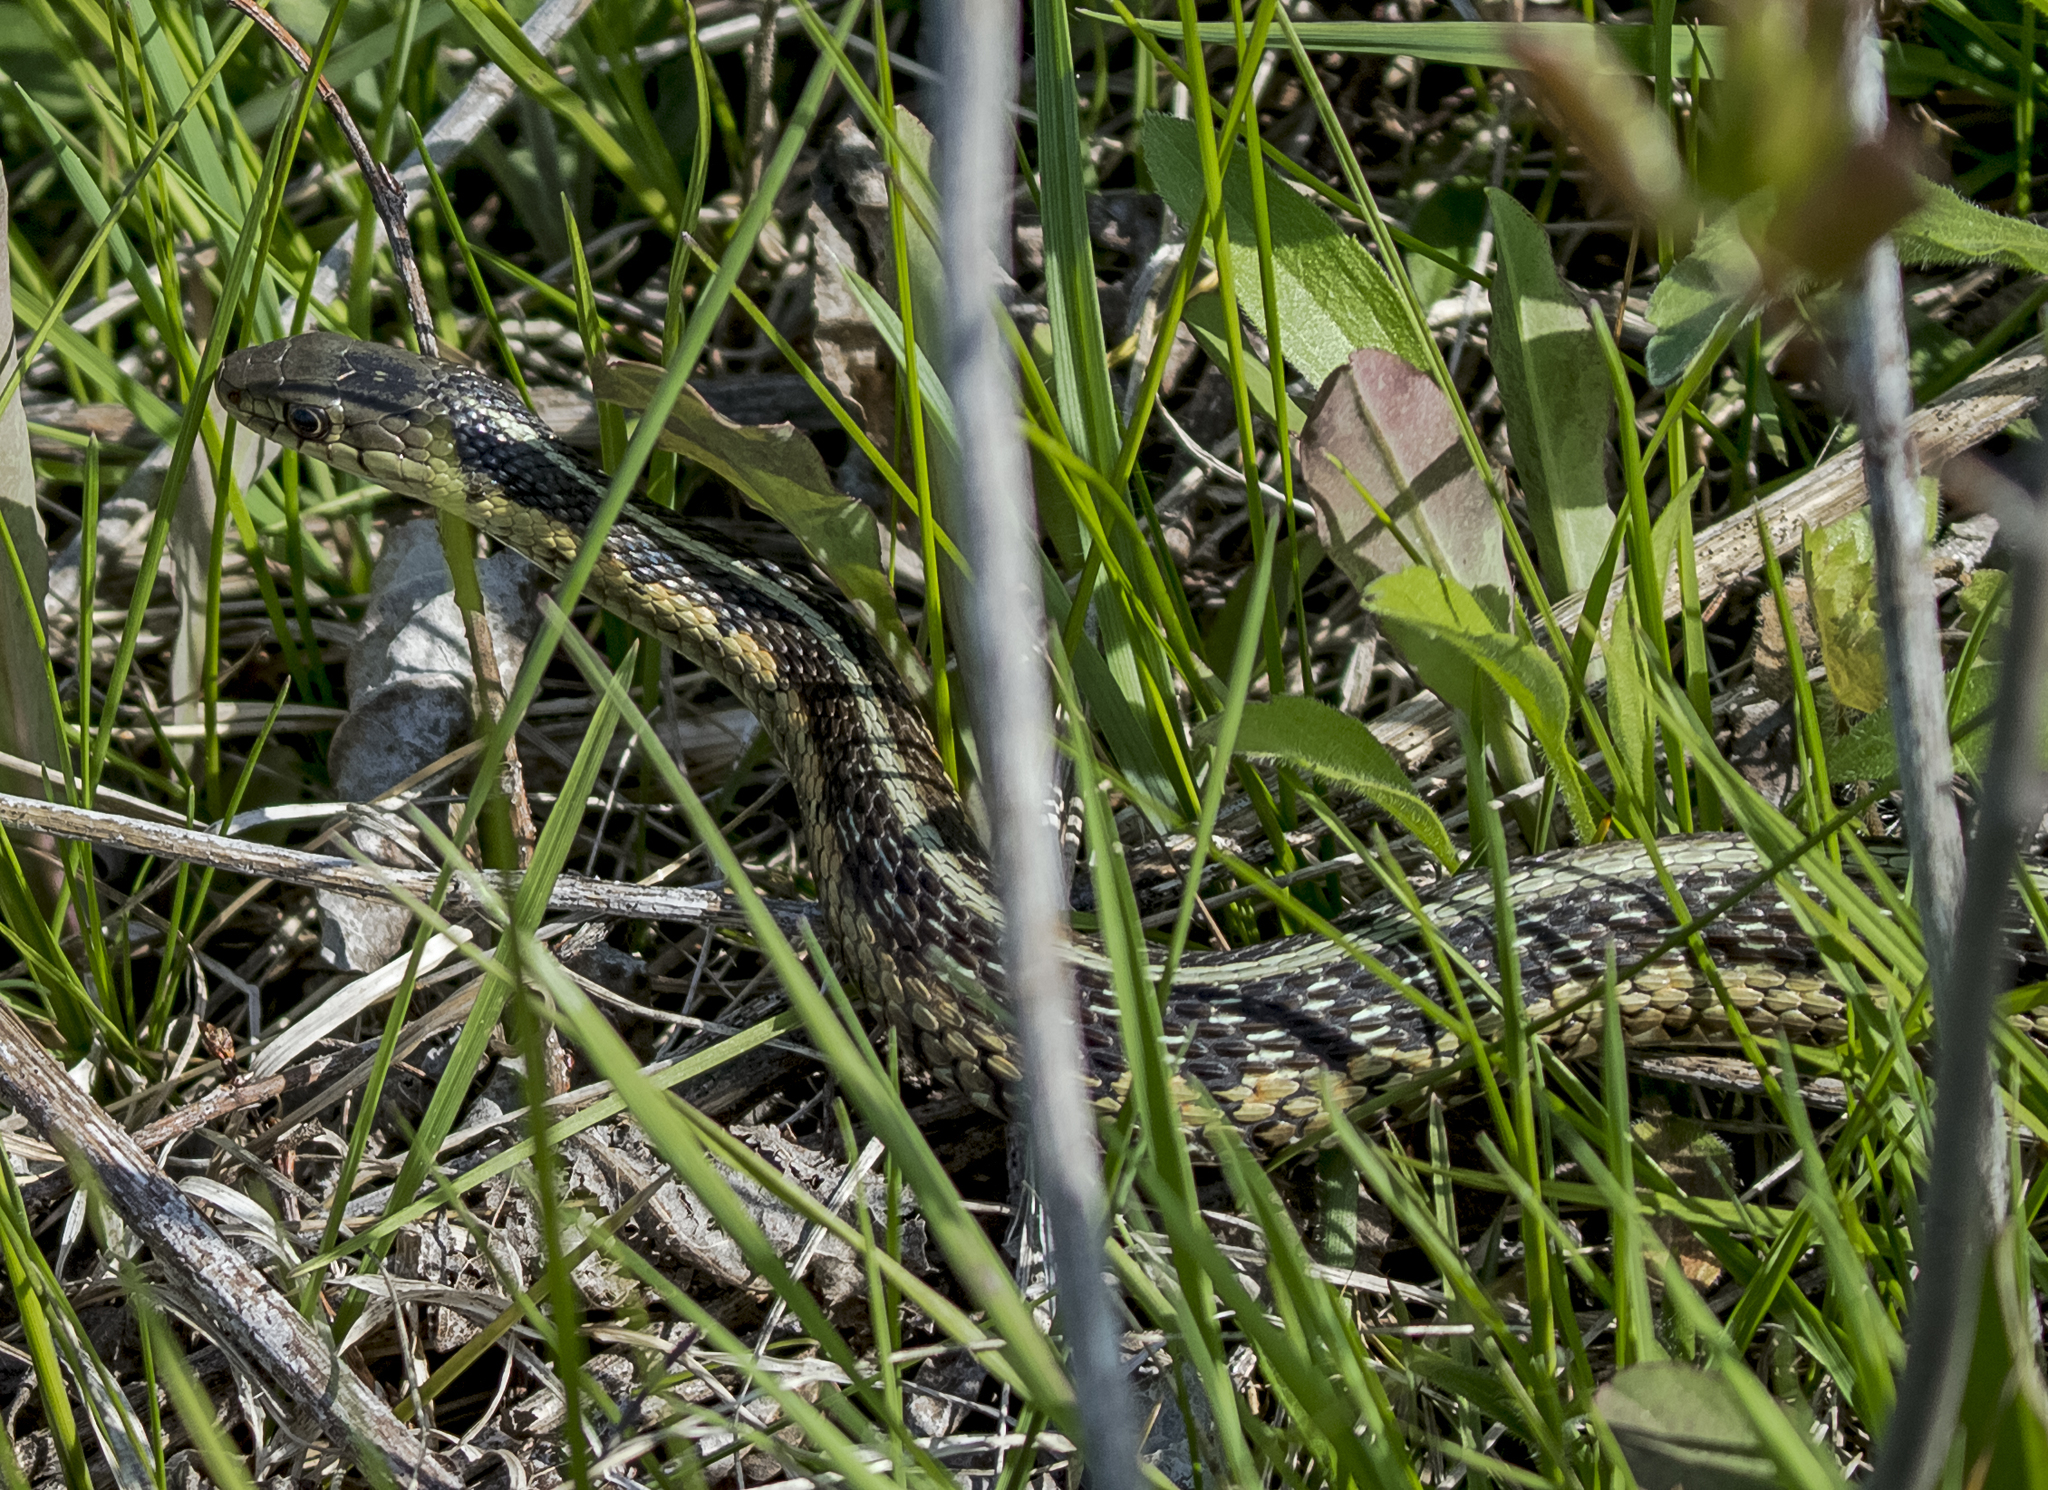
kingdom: Animalia
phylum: Chordata
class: Squamata
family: Colubridae
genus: Thamnophis
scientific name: Thamnophis sirtalis
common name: Common garter snake
